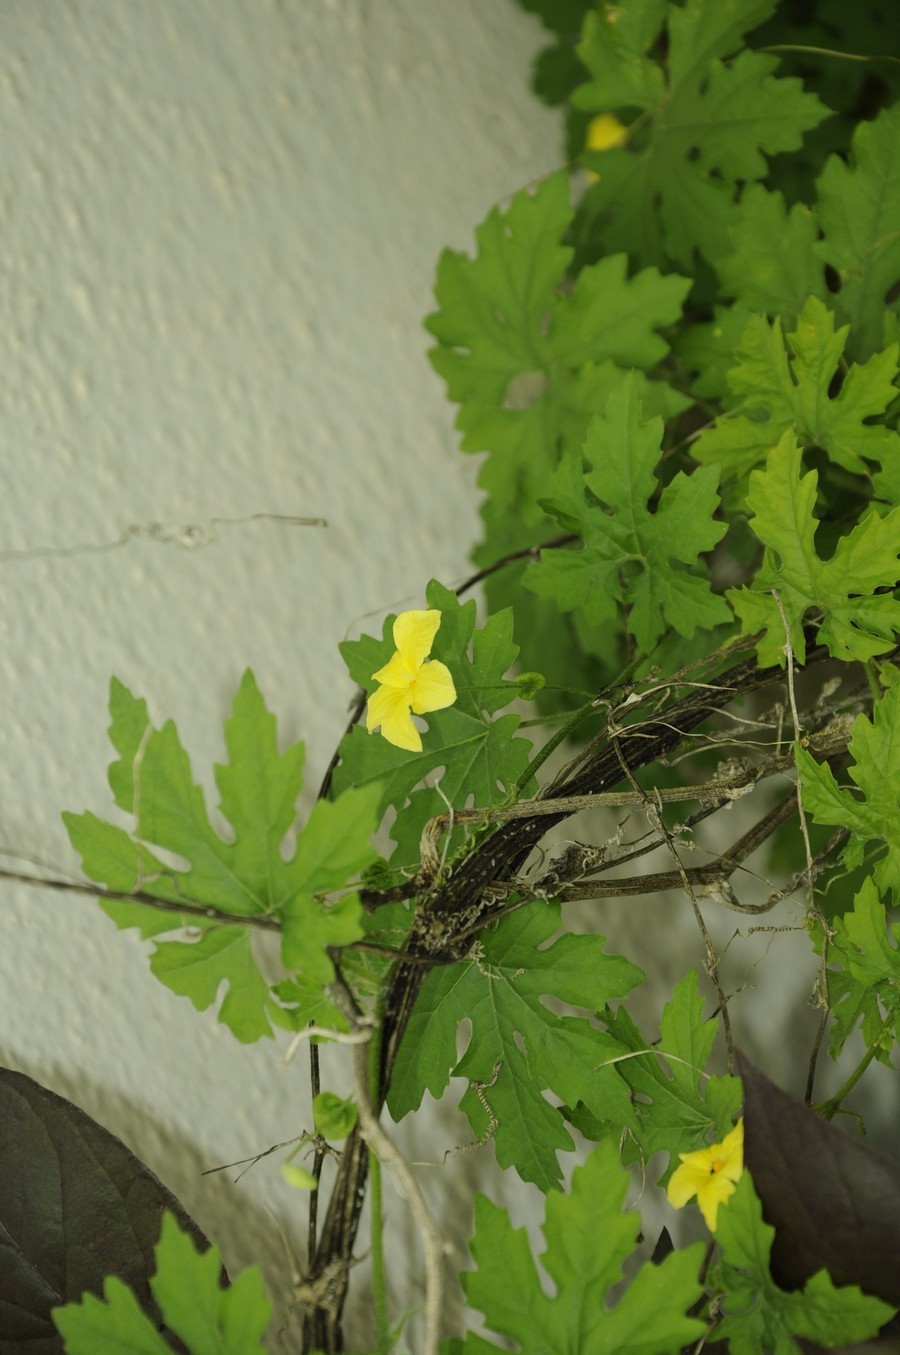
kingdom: Plantae
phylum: Tracheophyta
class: Magnoliopsida
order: Cucurbitales
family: Cucurbitaceae
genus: Momordica
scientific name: Momordica charantia
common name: Balsampear
